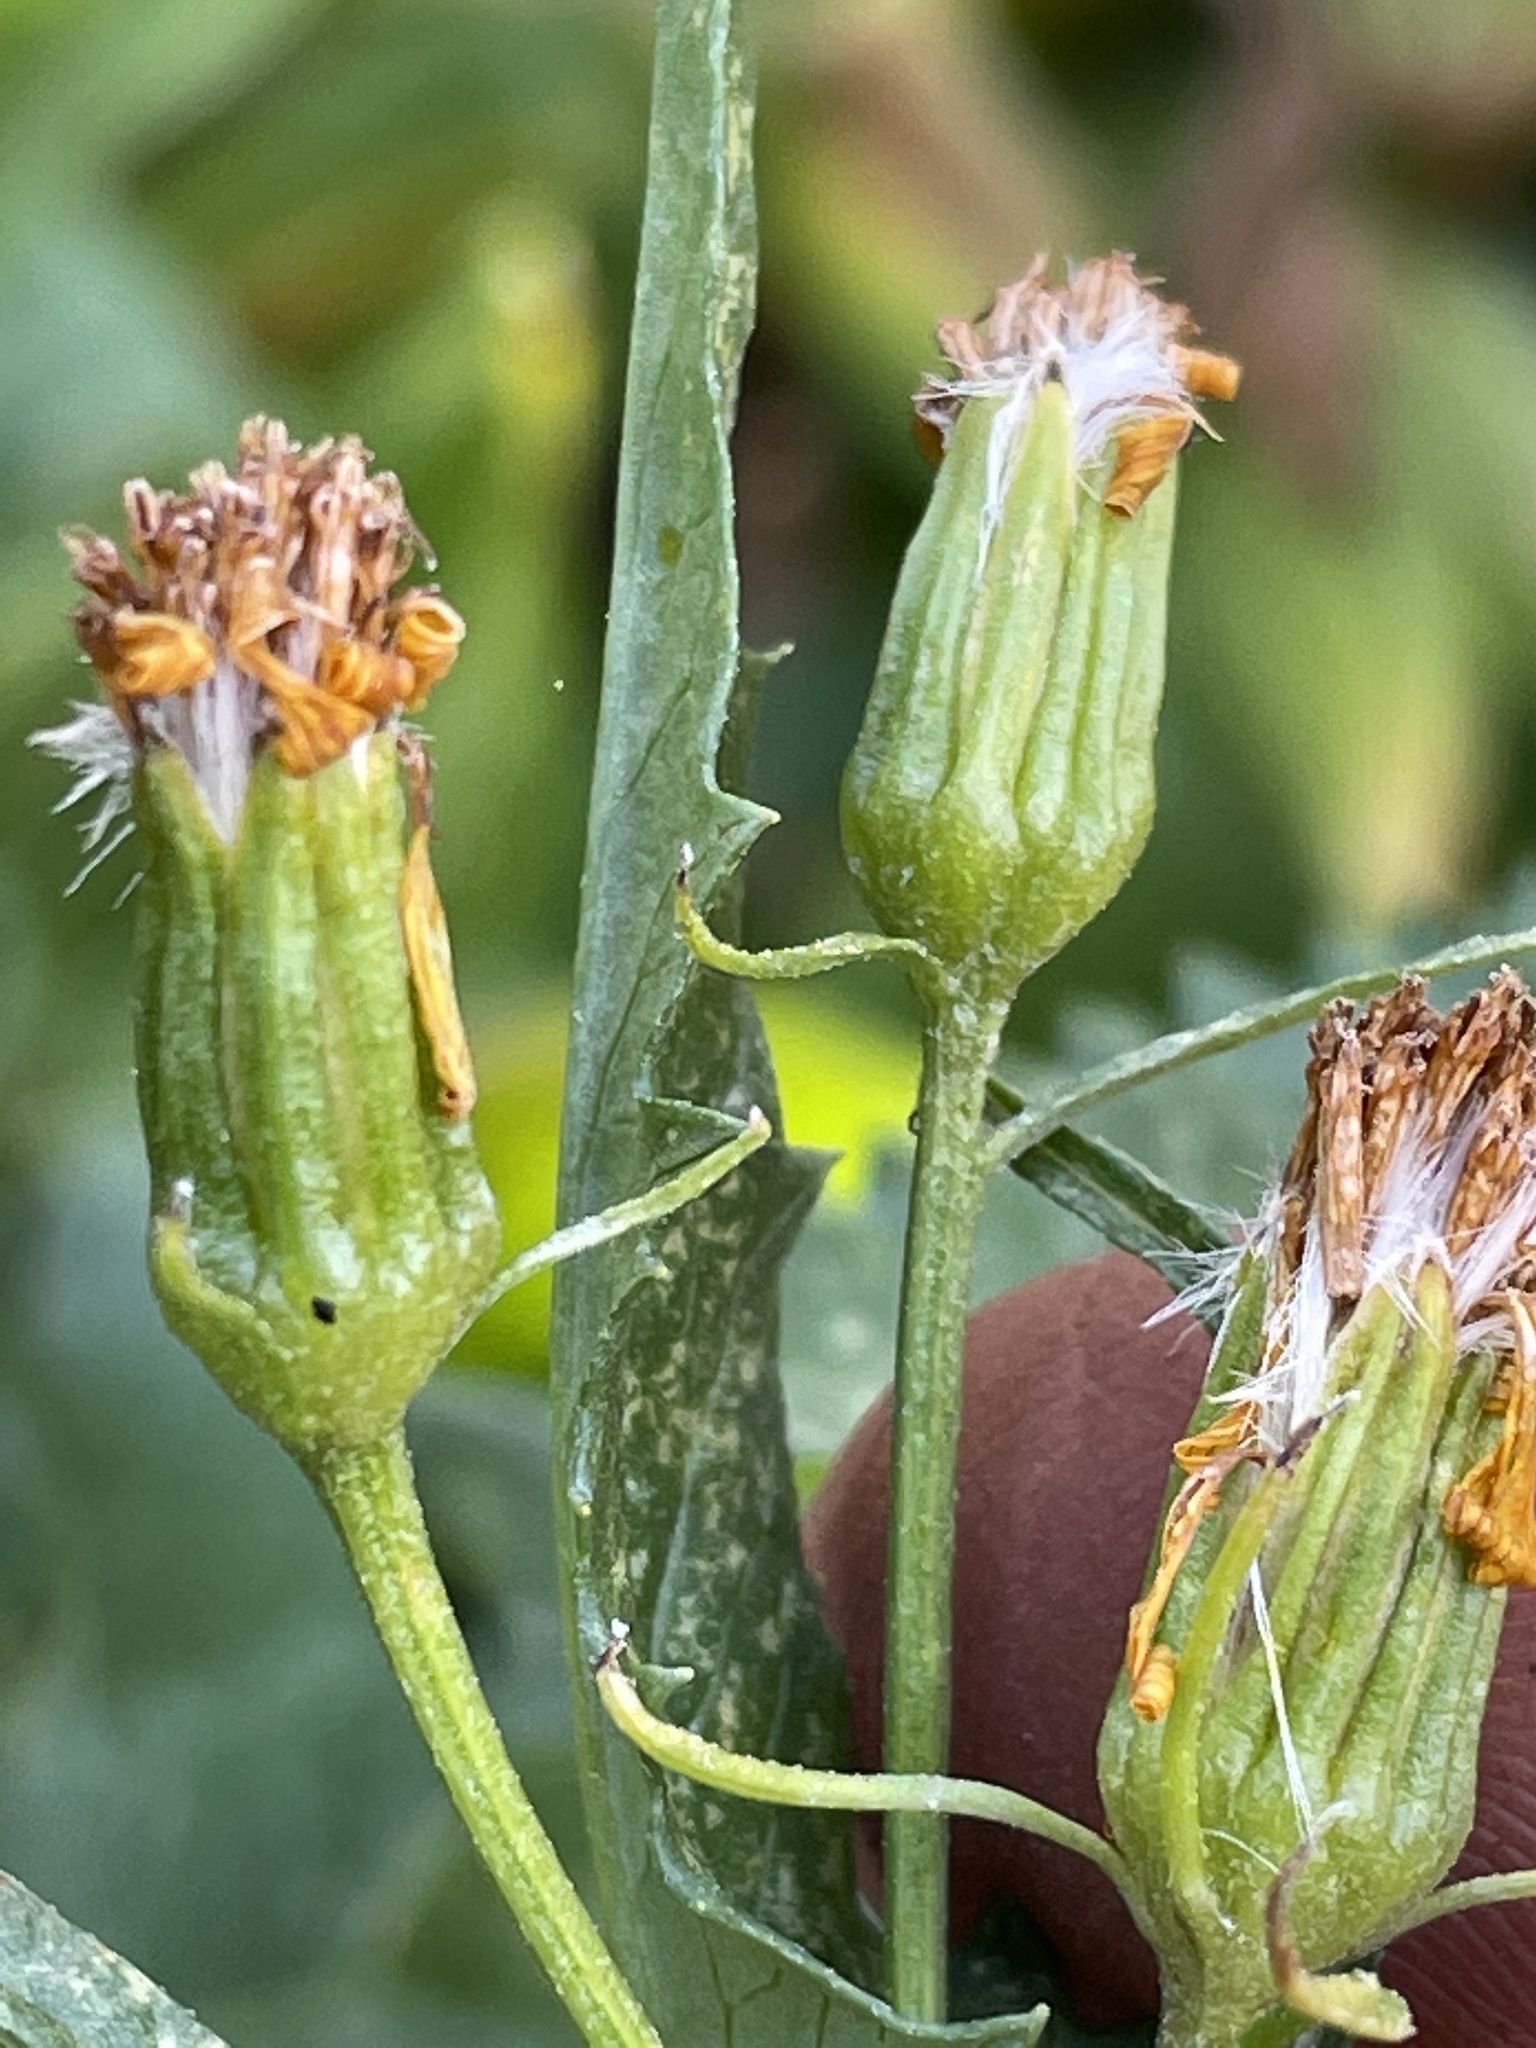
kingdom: Plantae
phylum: Tracheophyta
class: Magnoliopsida
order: Asterales
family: Asteraceae
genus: Senecio
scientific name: Senecio triangularis
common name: Arrowleaf butterweed
